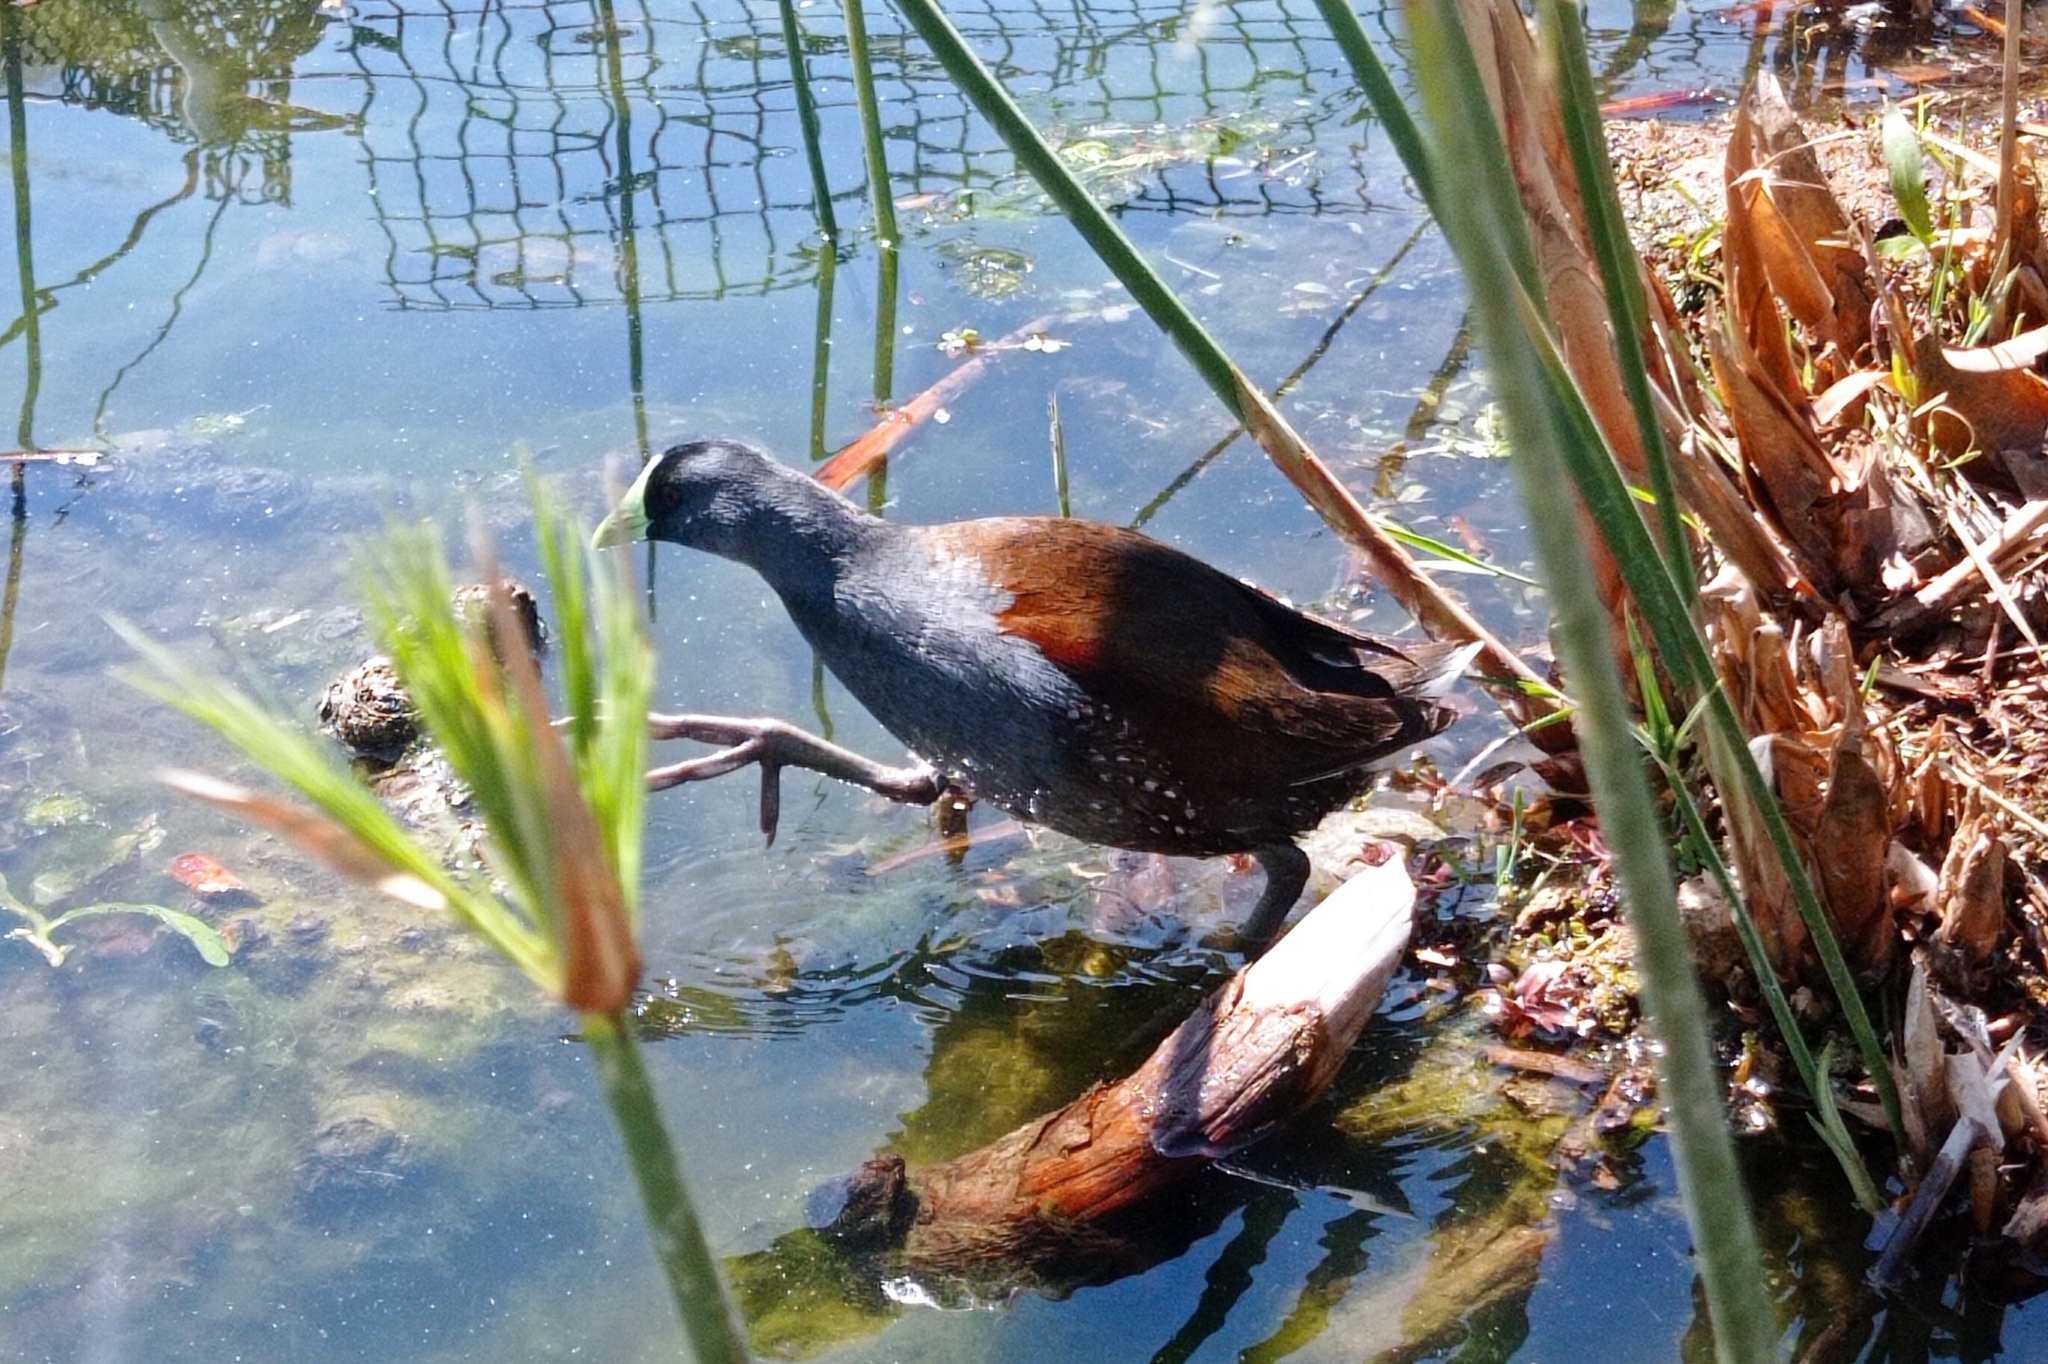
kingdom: Animalia
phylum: Chordata
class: Aves
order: Gruiformes
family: Rallidae
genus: Gallinula
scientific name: Gallinula melanops
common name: Spot-flanked gallinule
